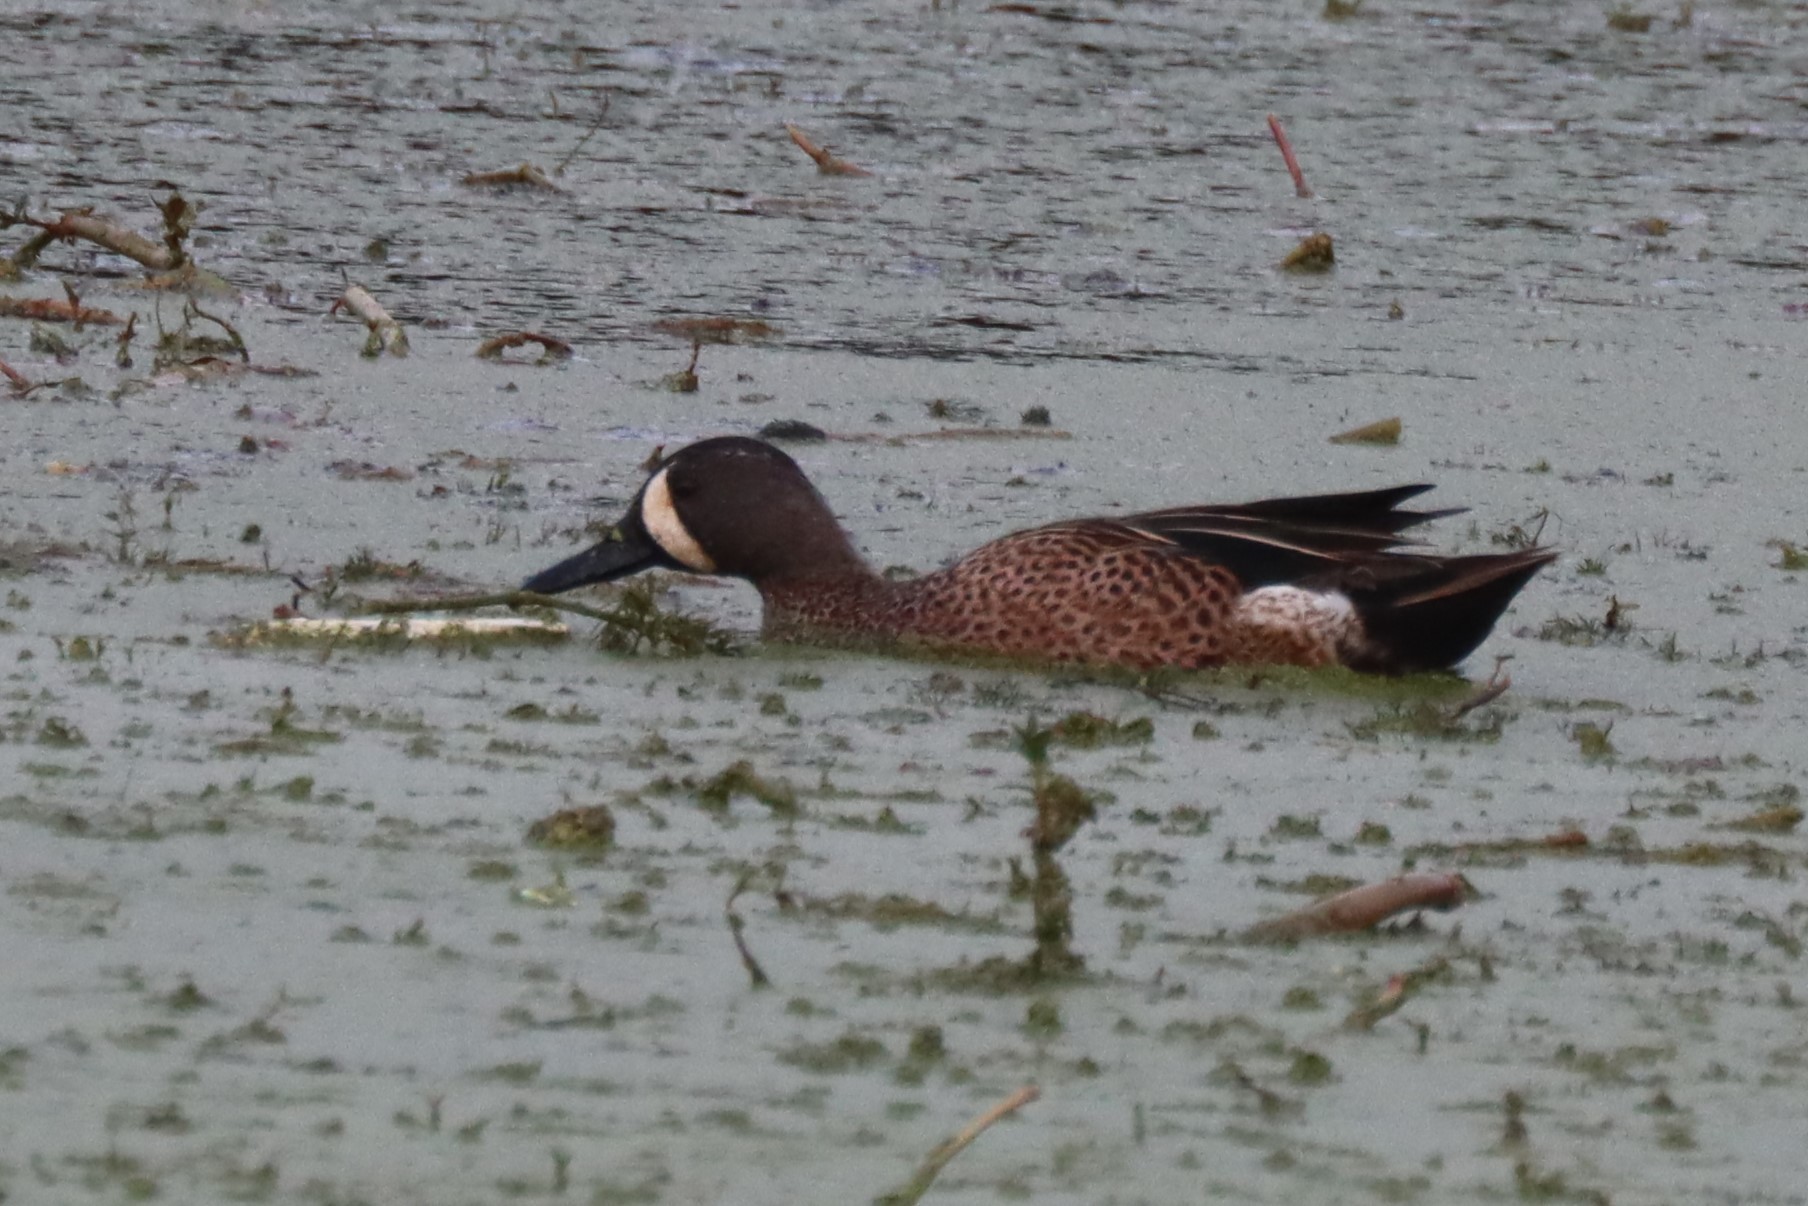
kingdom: Animalia
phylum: Chordata
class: Aves
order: Anseriformes
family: Anatidae
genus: Spatula
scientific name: Spatula discors
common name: Blue-winged teal
